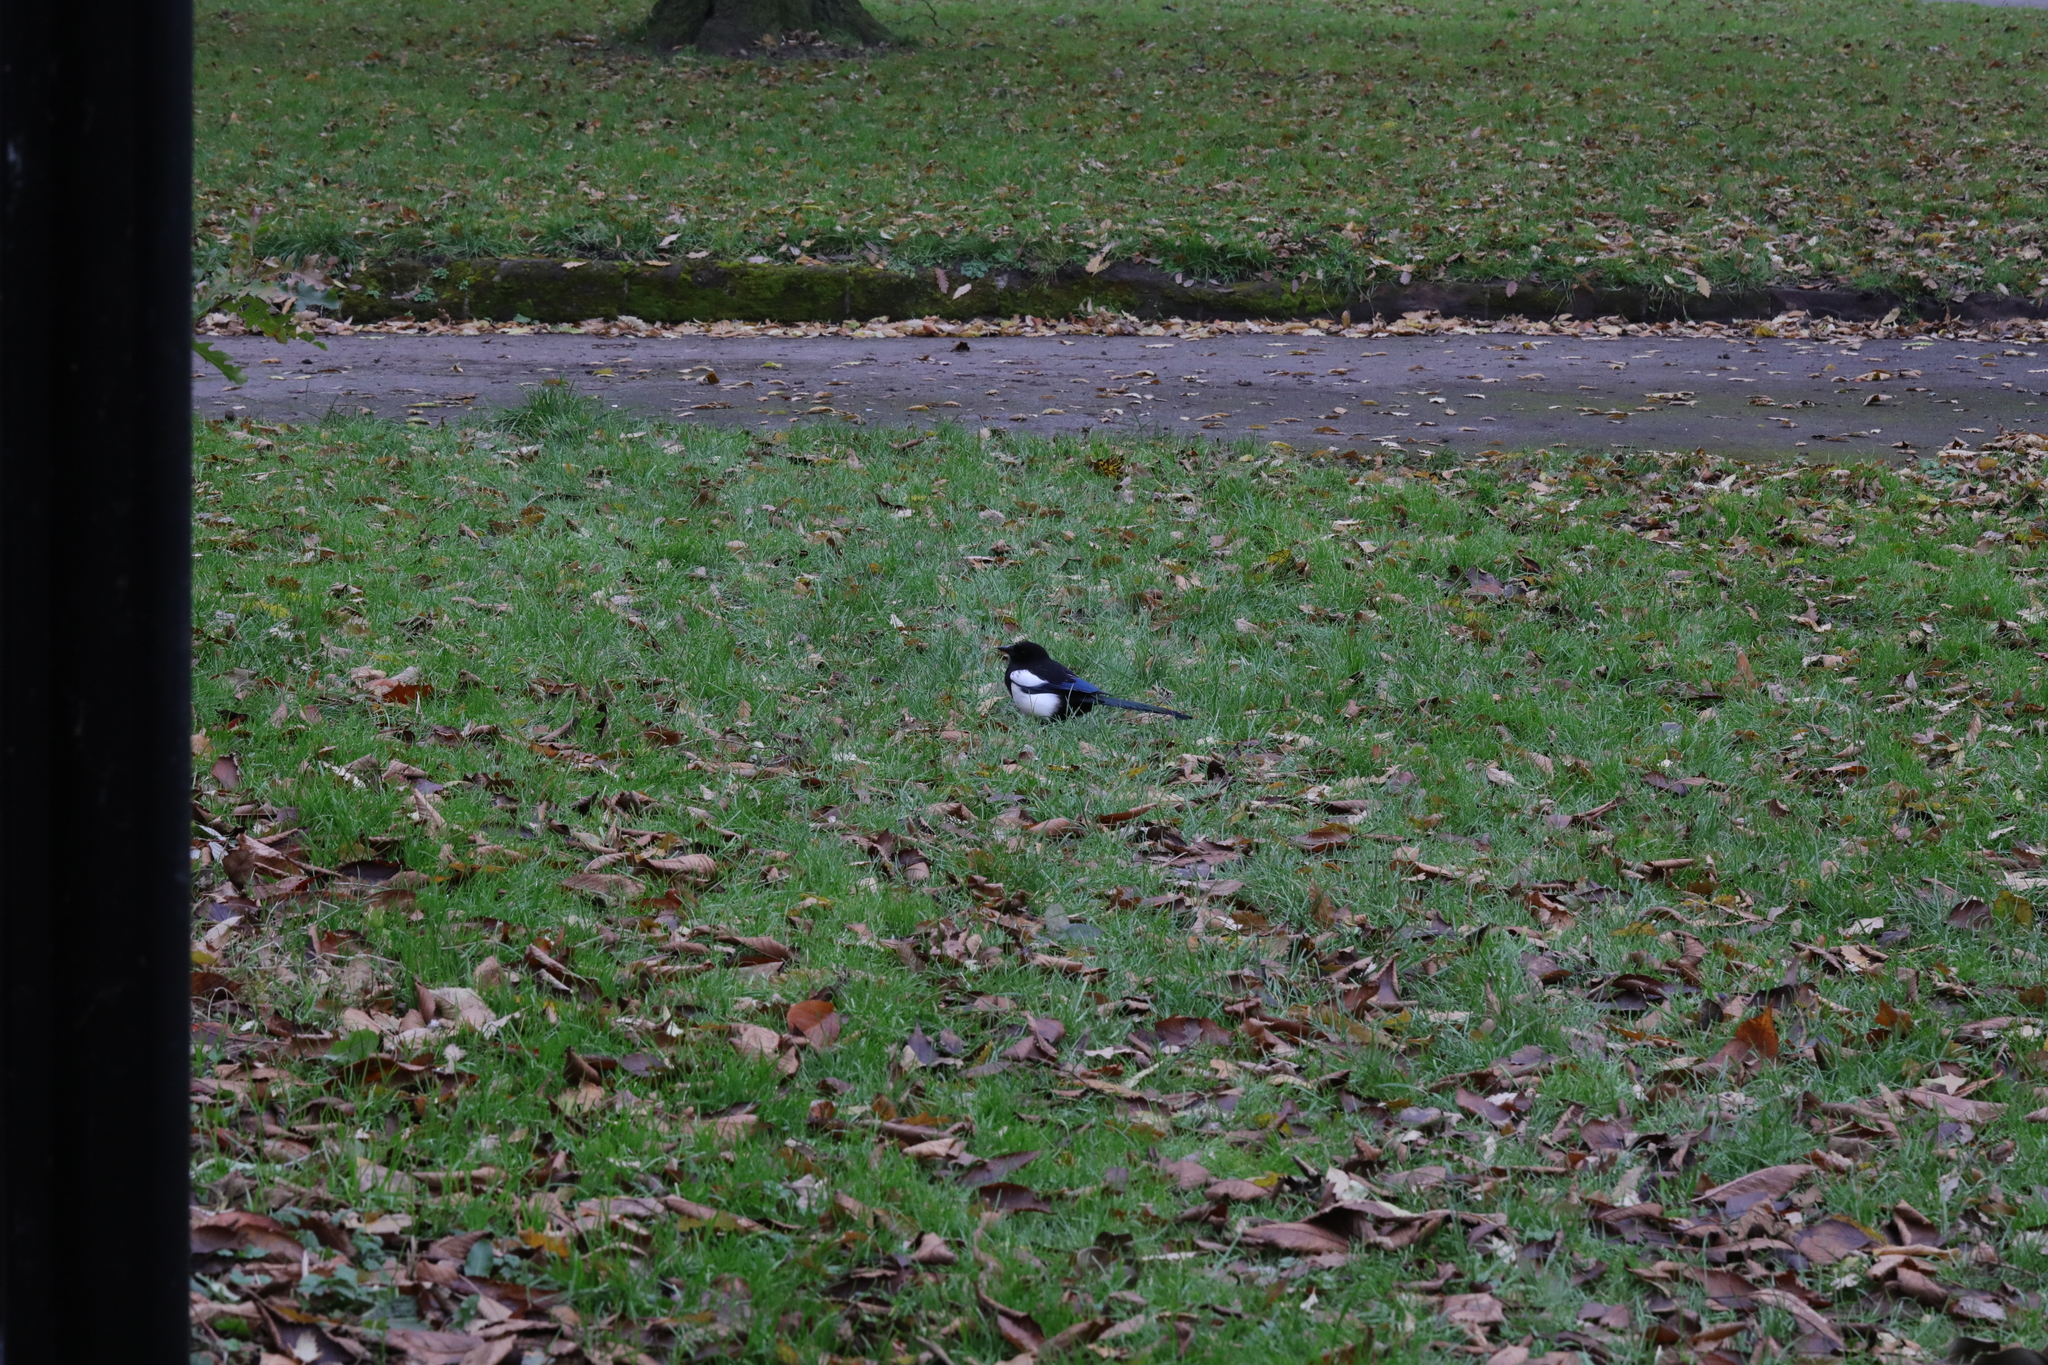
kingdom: Animalia
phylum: Chordata
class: Aves
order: Passeriformes
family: Corvidae
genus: Pica
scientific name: Pica pica
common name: Eurasian magpie
